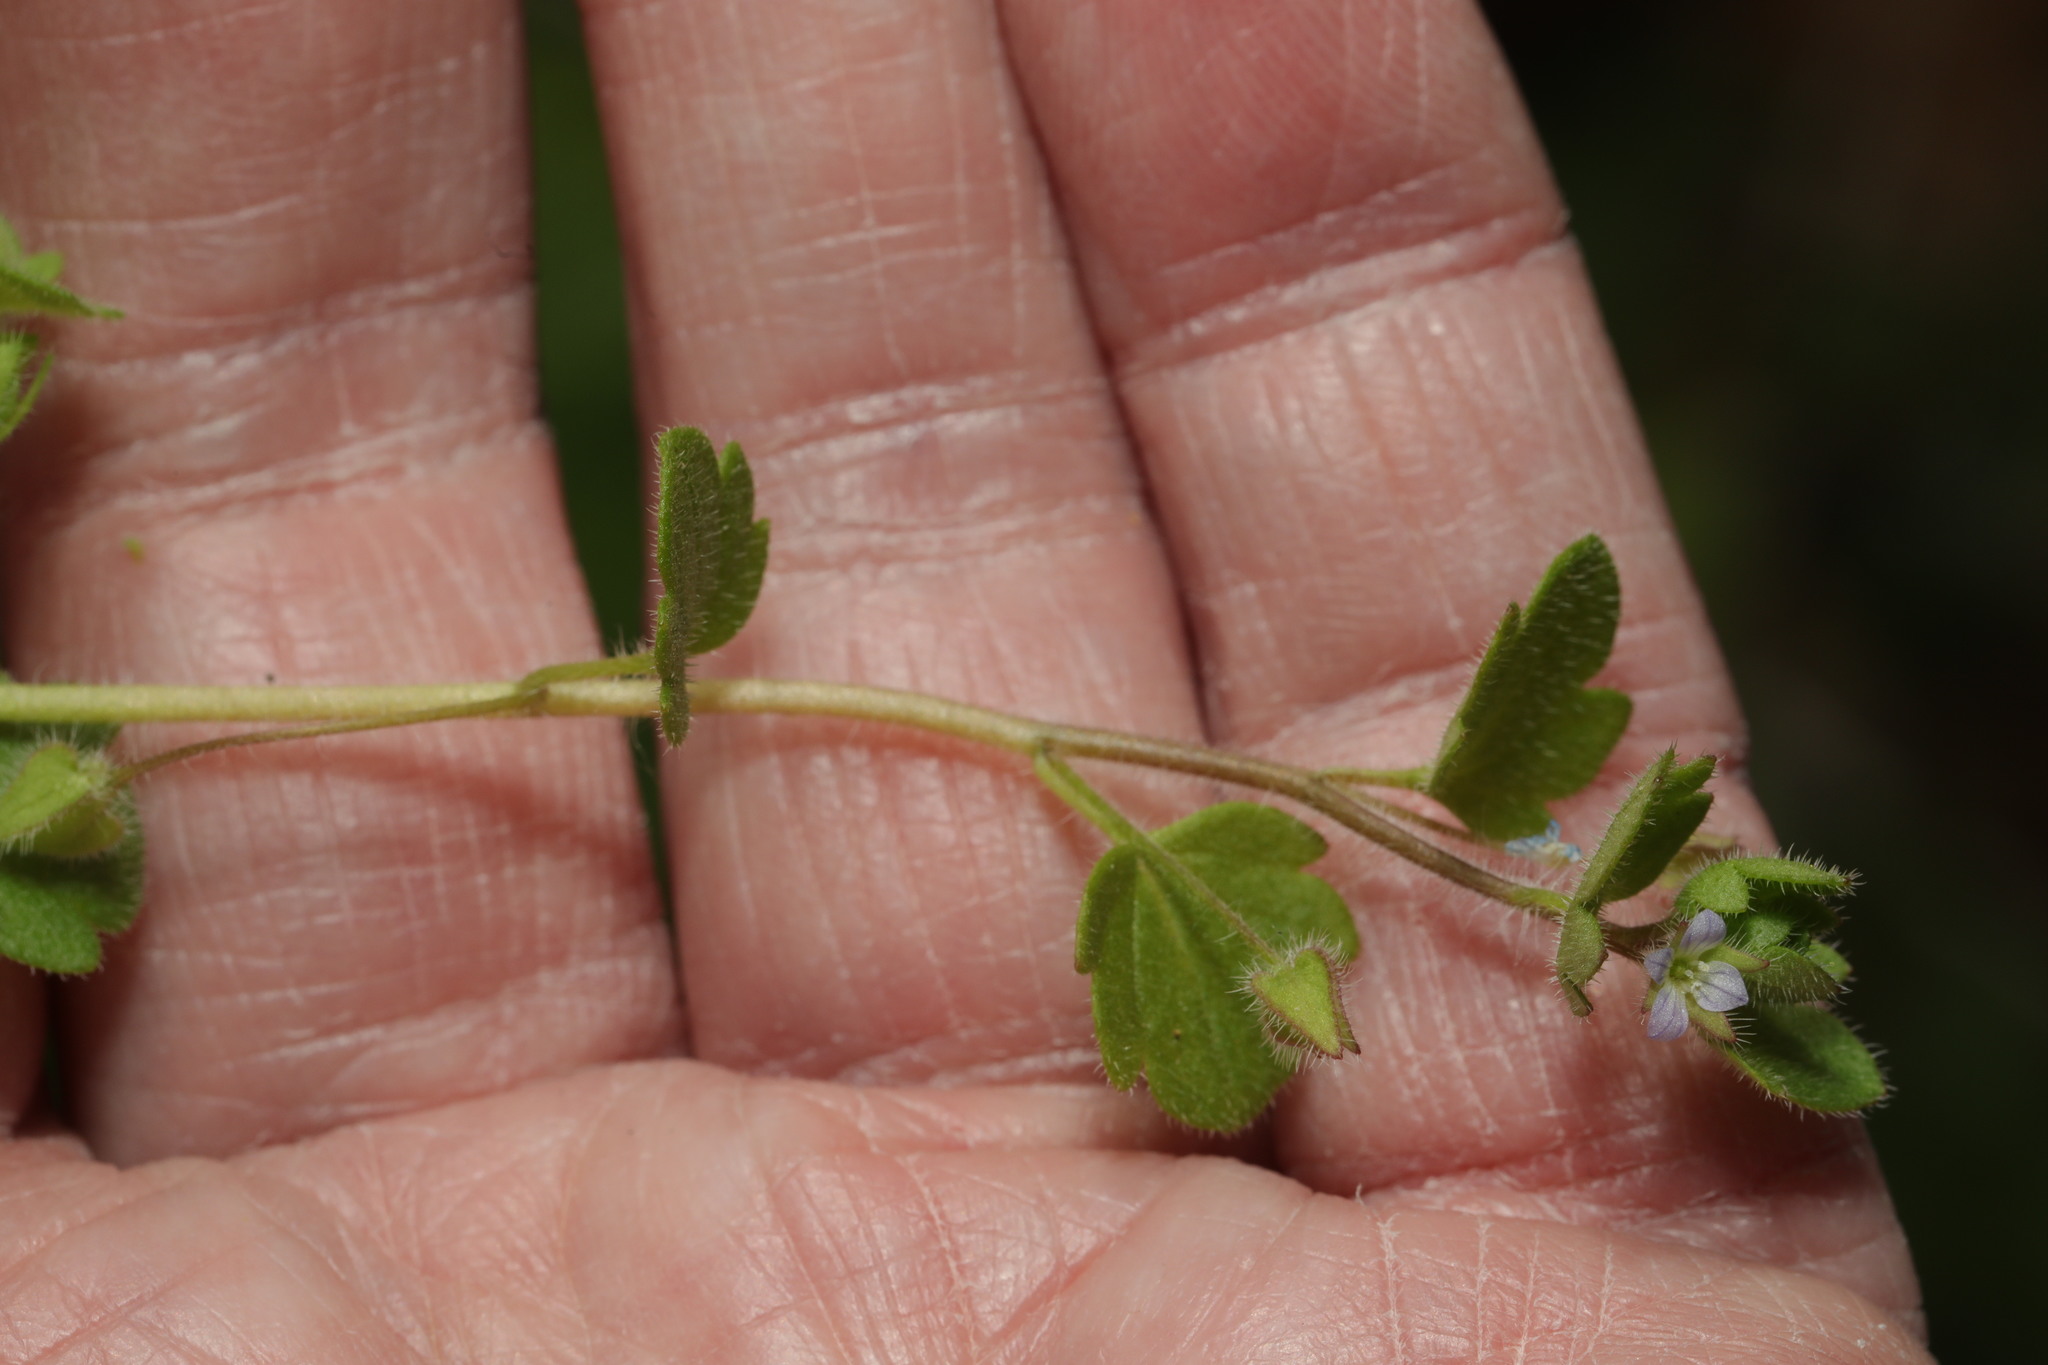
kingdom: Plantae
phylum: Tracheophyta
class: Magnoliopsida
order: Lamiales
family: Plantaginaceae
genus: Veronica
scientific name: Veronica hederifolia
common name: Ivy-leaved speedwell
